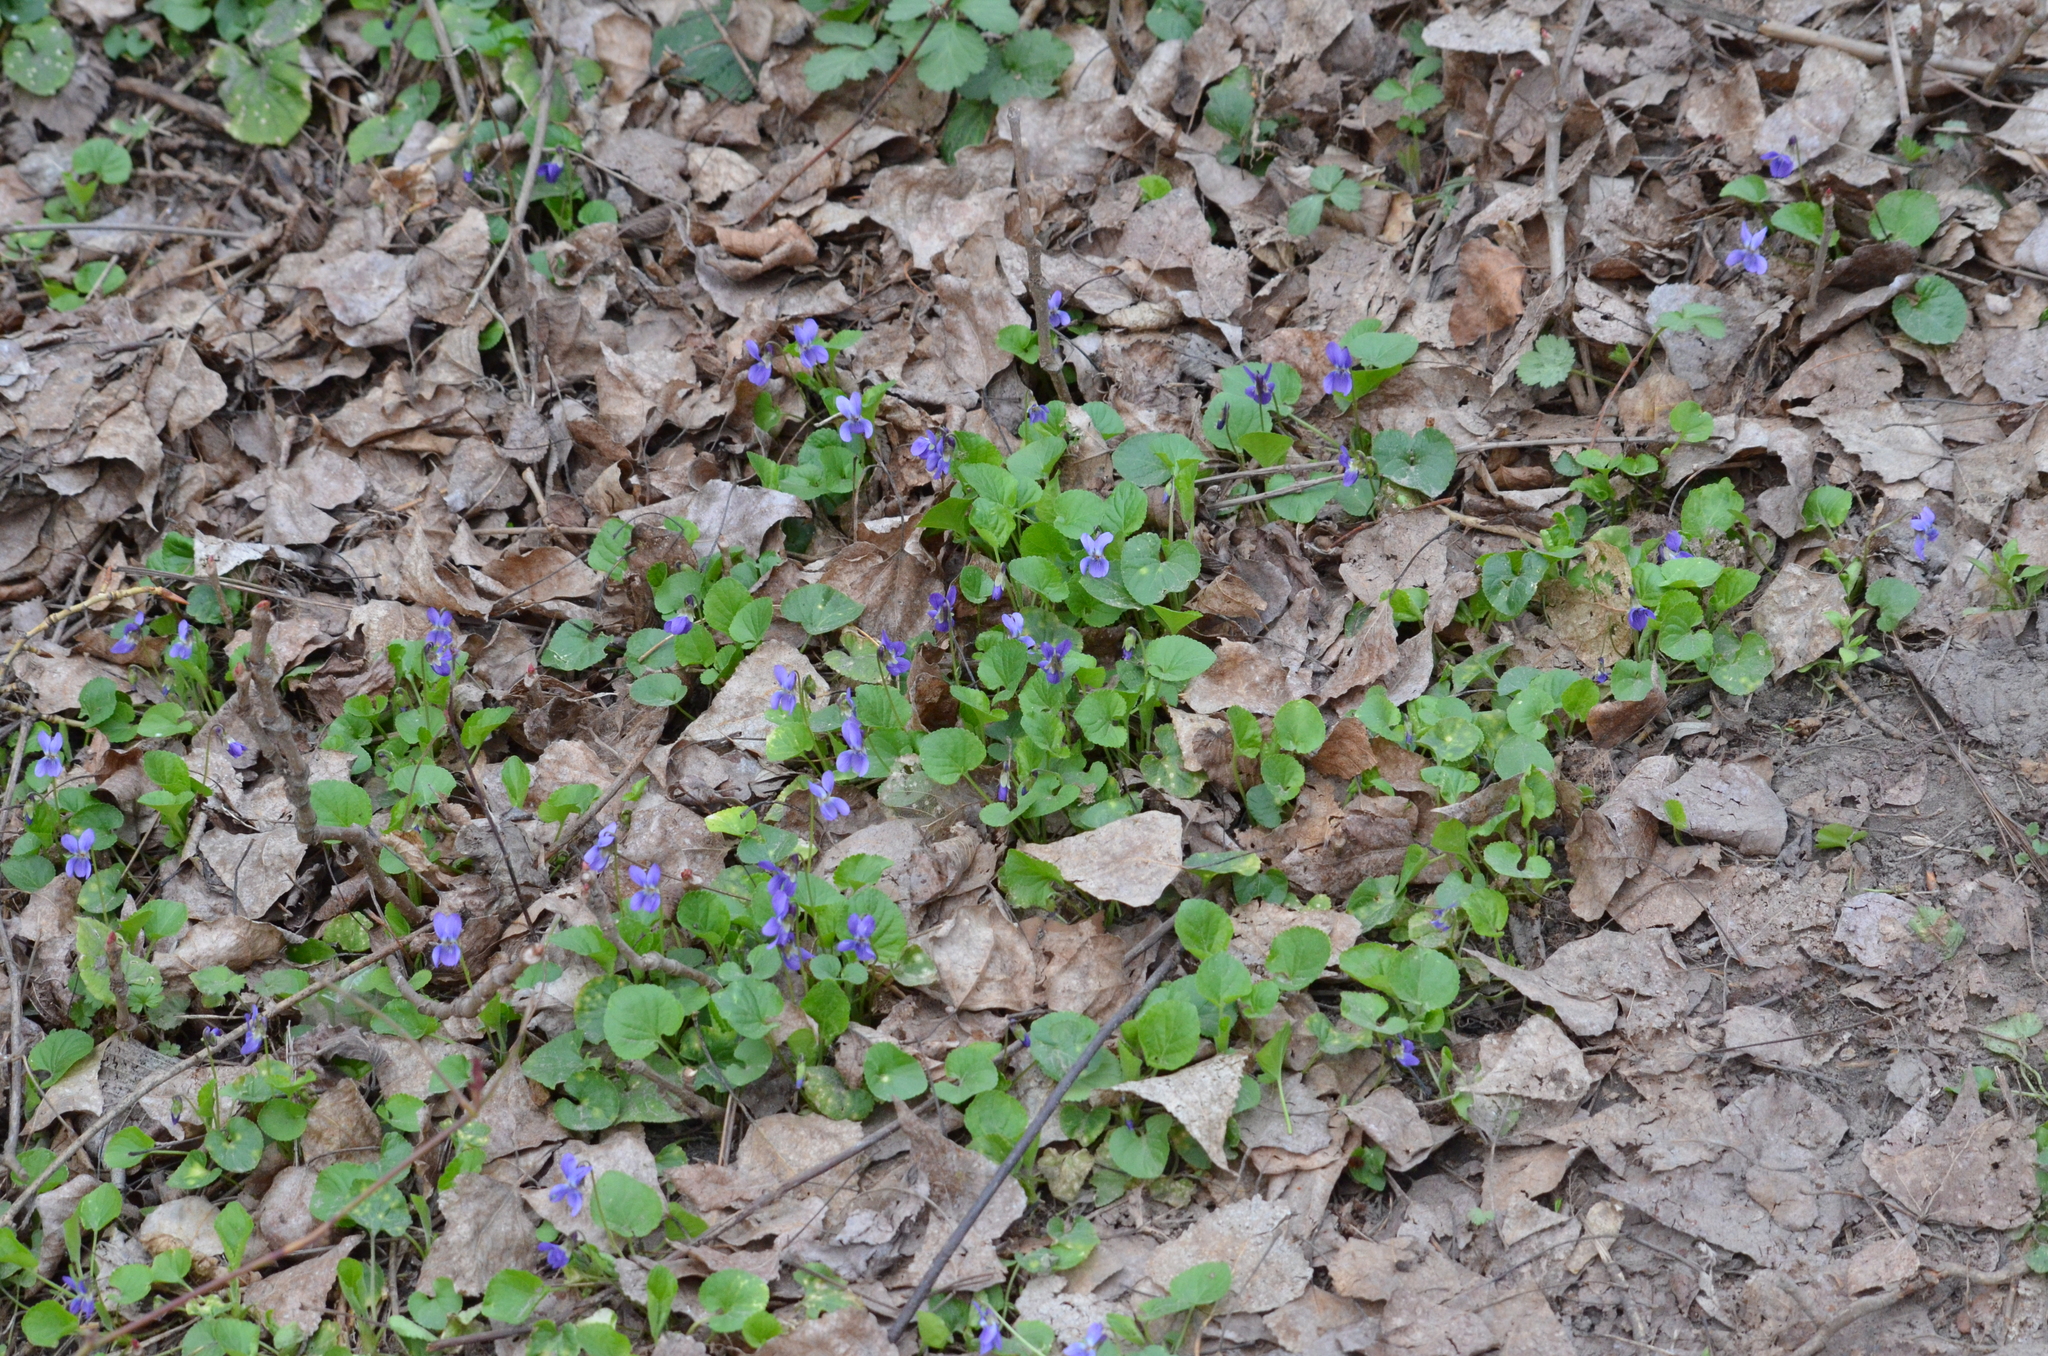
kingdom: Plantae
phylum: Tracheophyta
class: Magnoliopsida
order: Malpighiales
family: Violaceae
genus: Viola
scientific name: Viola odorata
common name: Sweet violet
